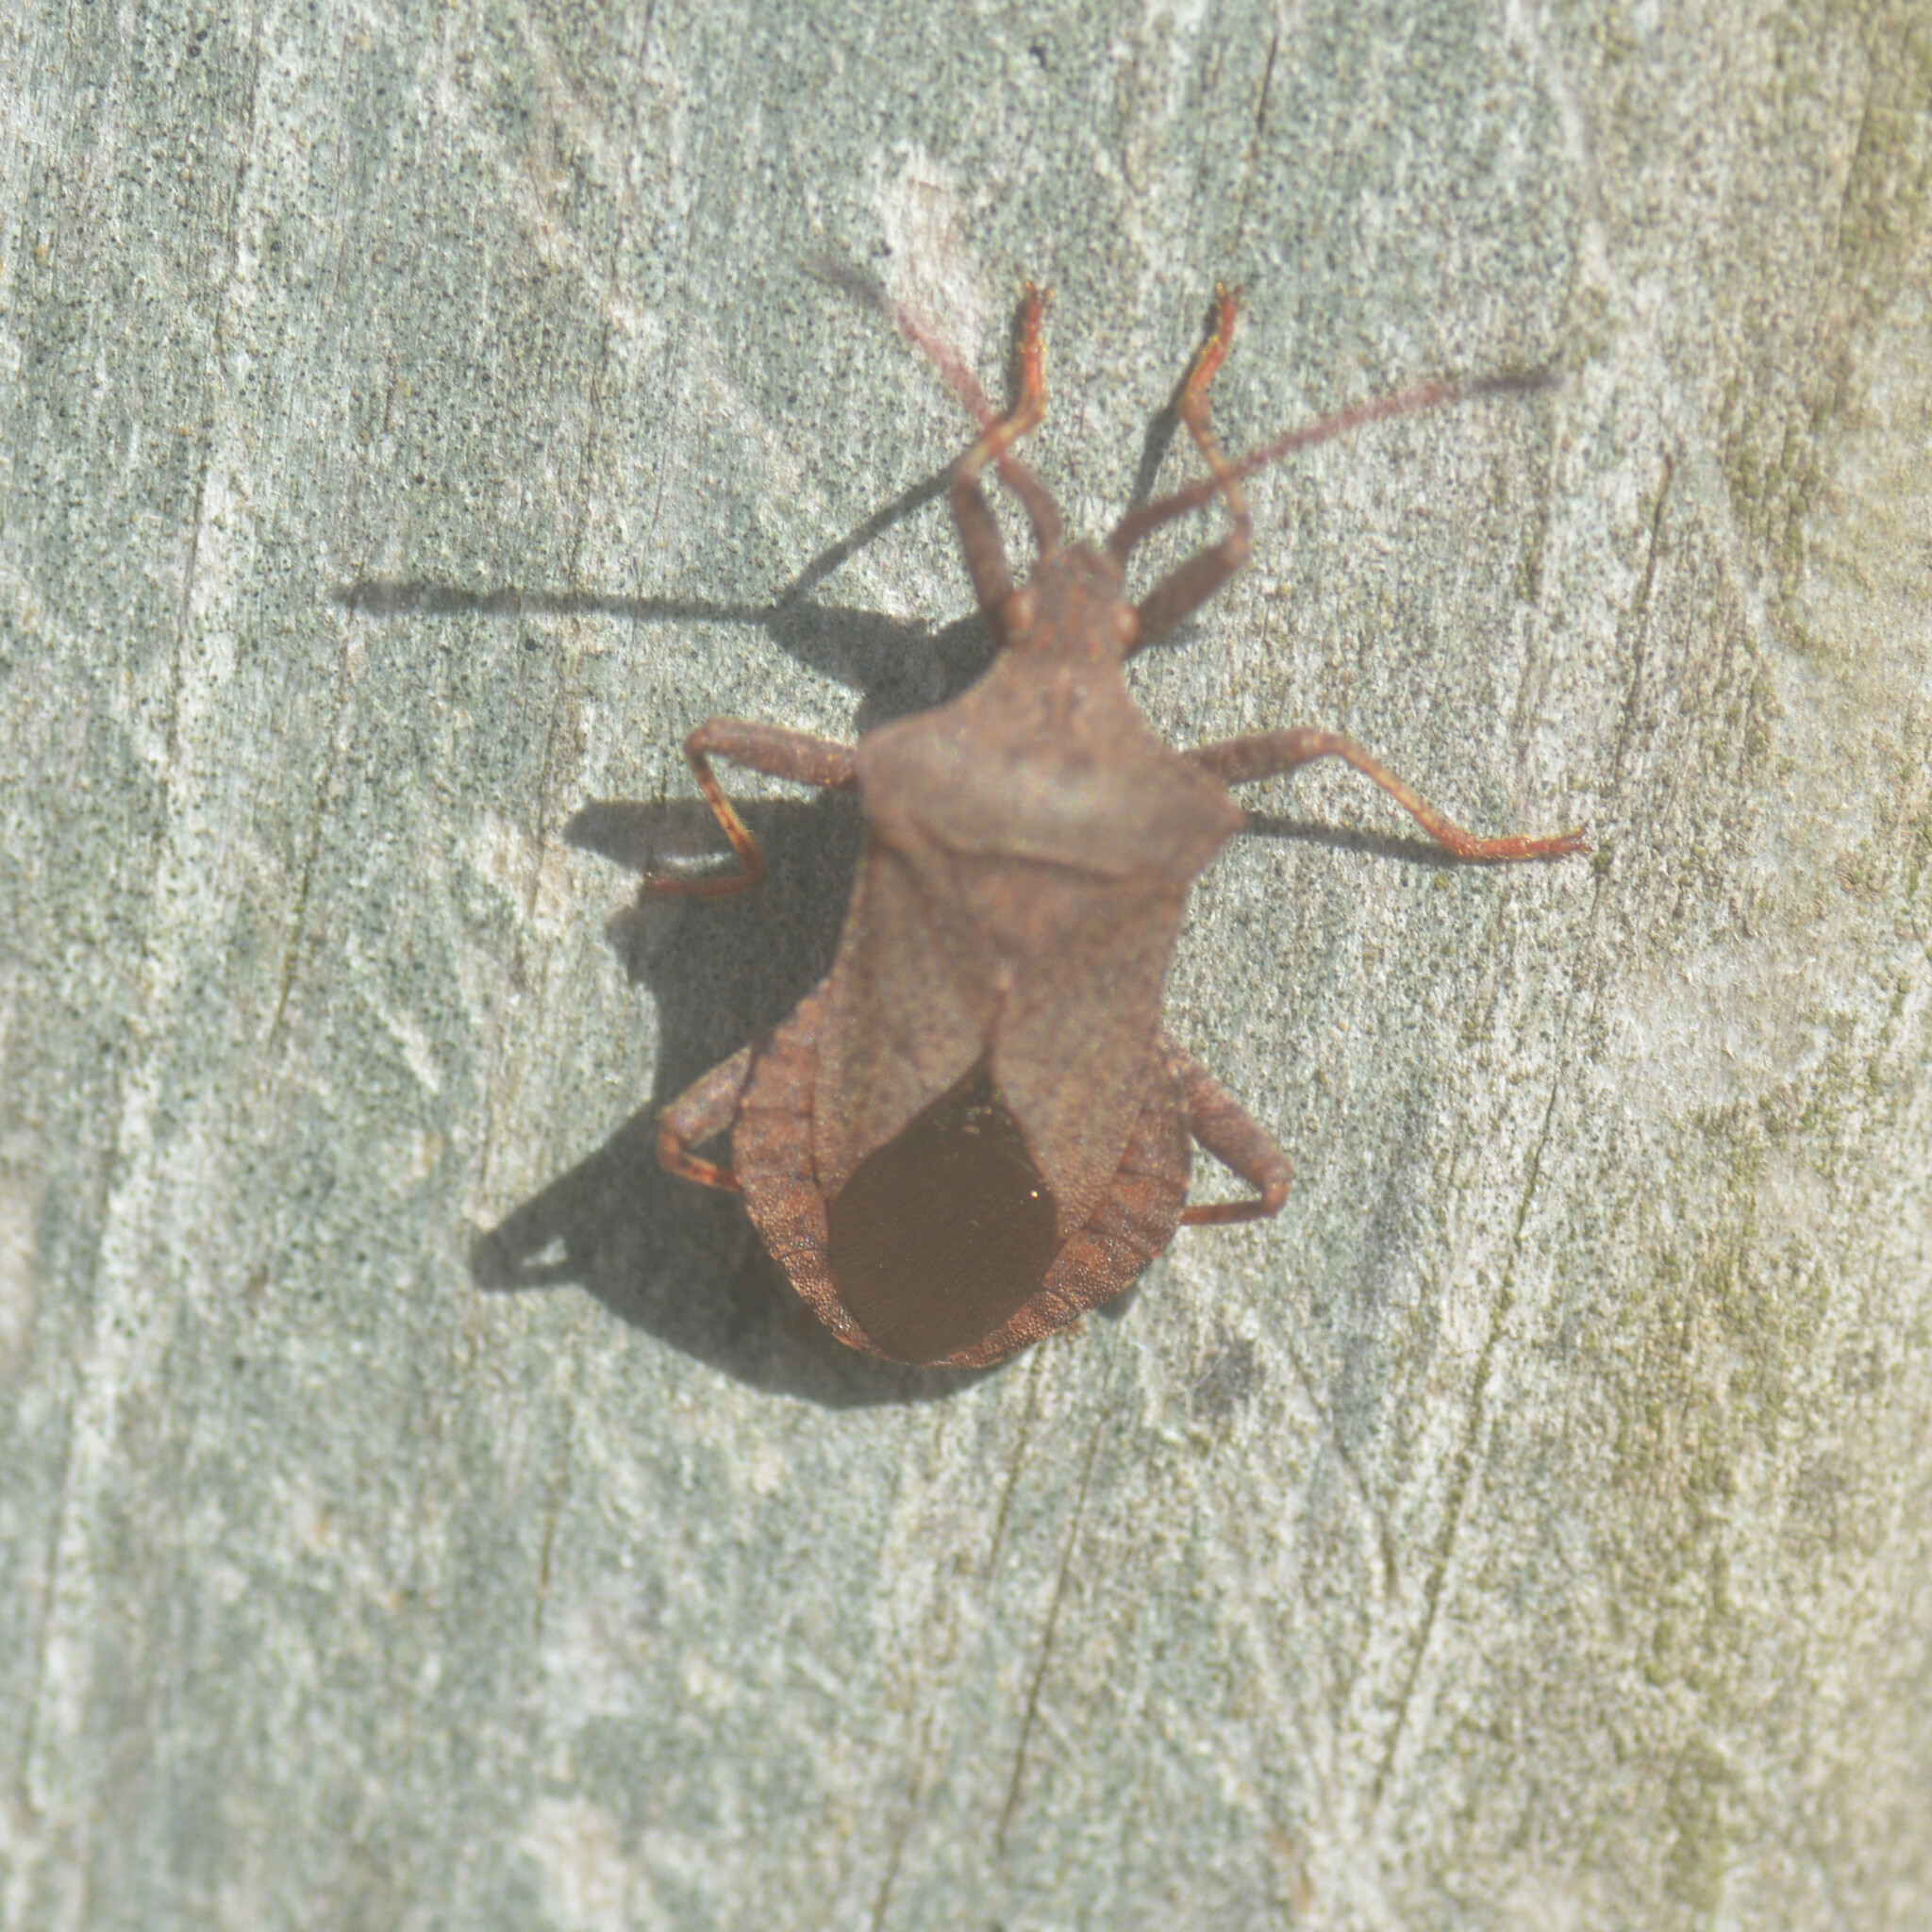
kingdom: Animalia
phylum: Arthropoda
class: Insecta
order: Hemiptera
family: Coreidae
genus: Coreus
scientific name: Coreus marginatus
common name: Dock bug
